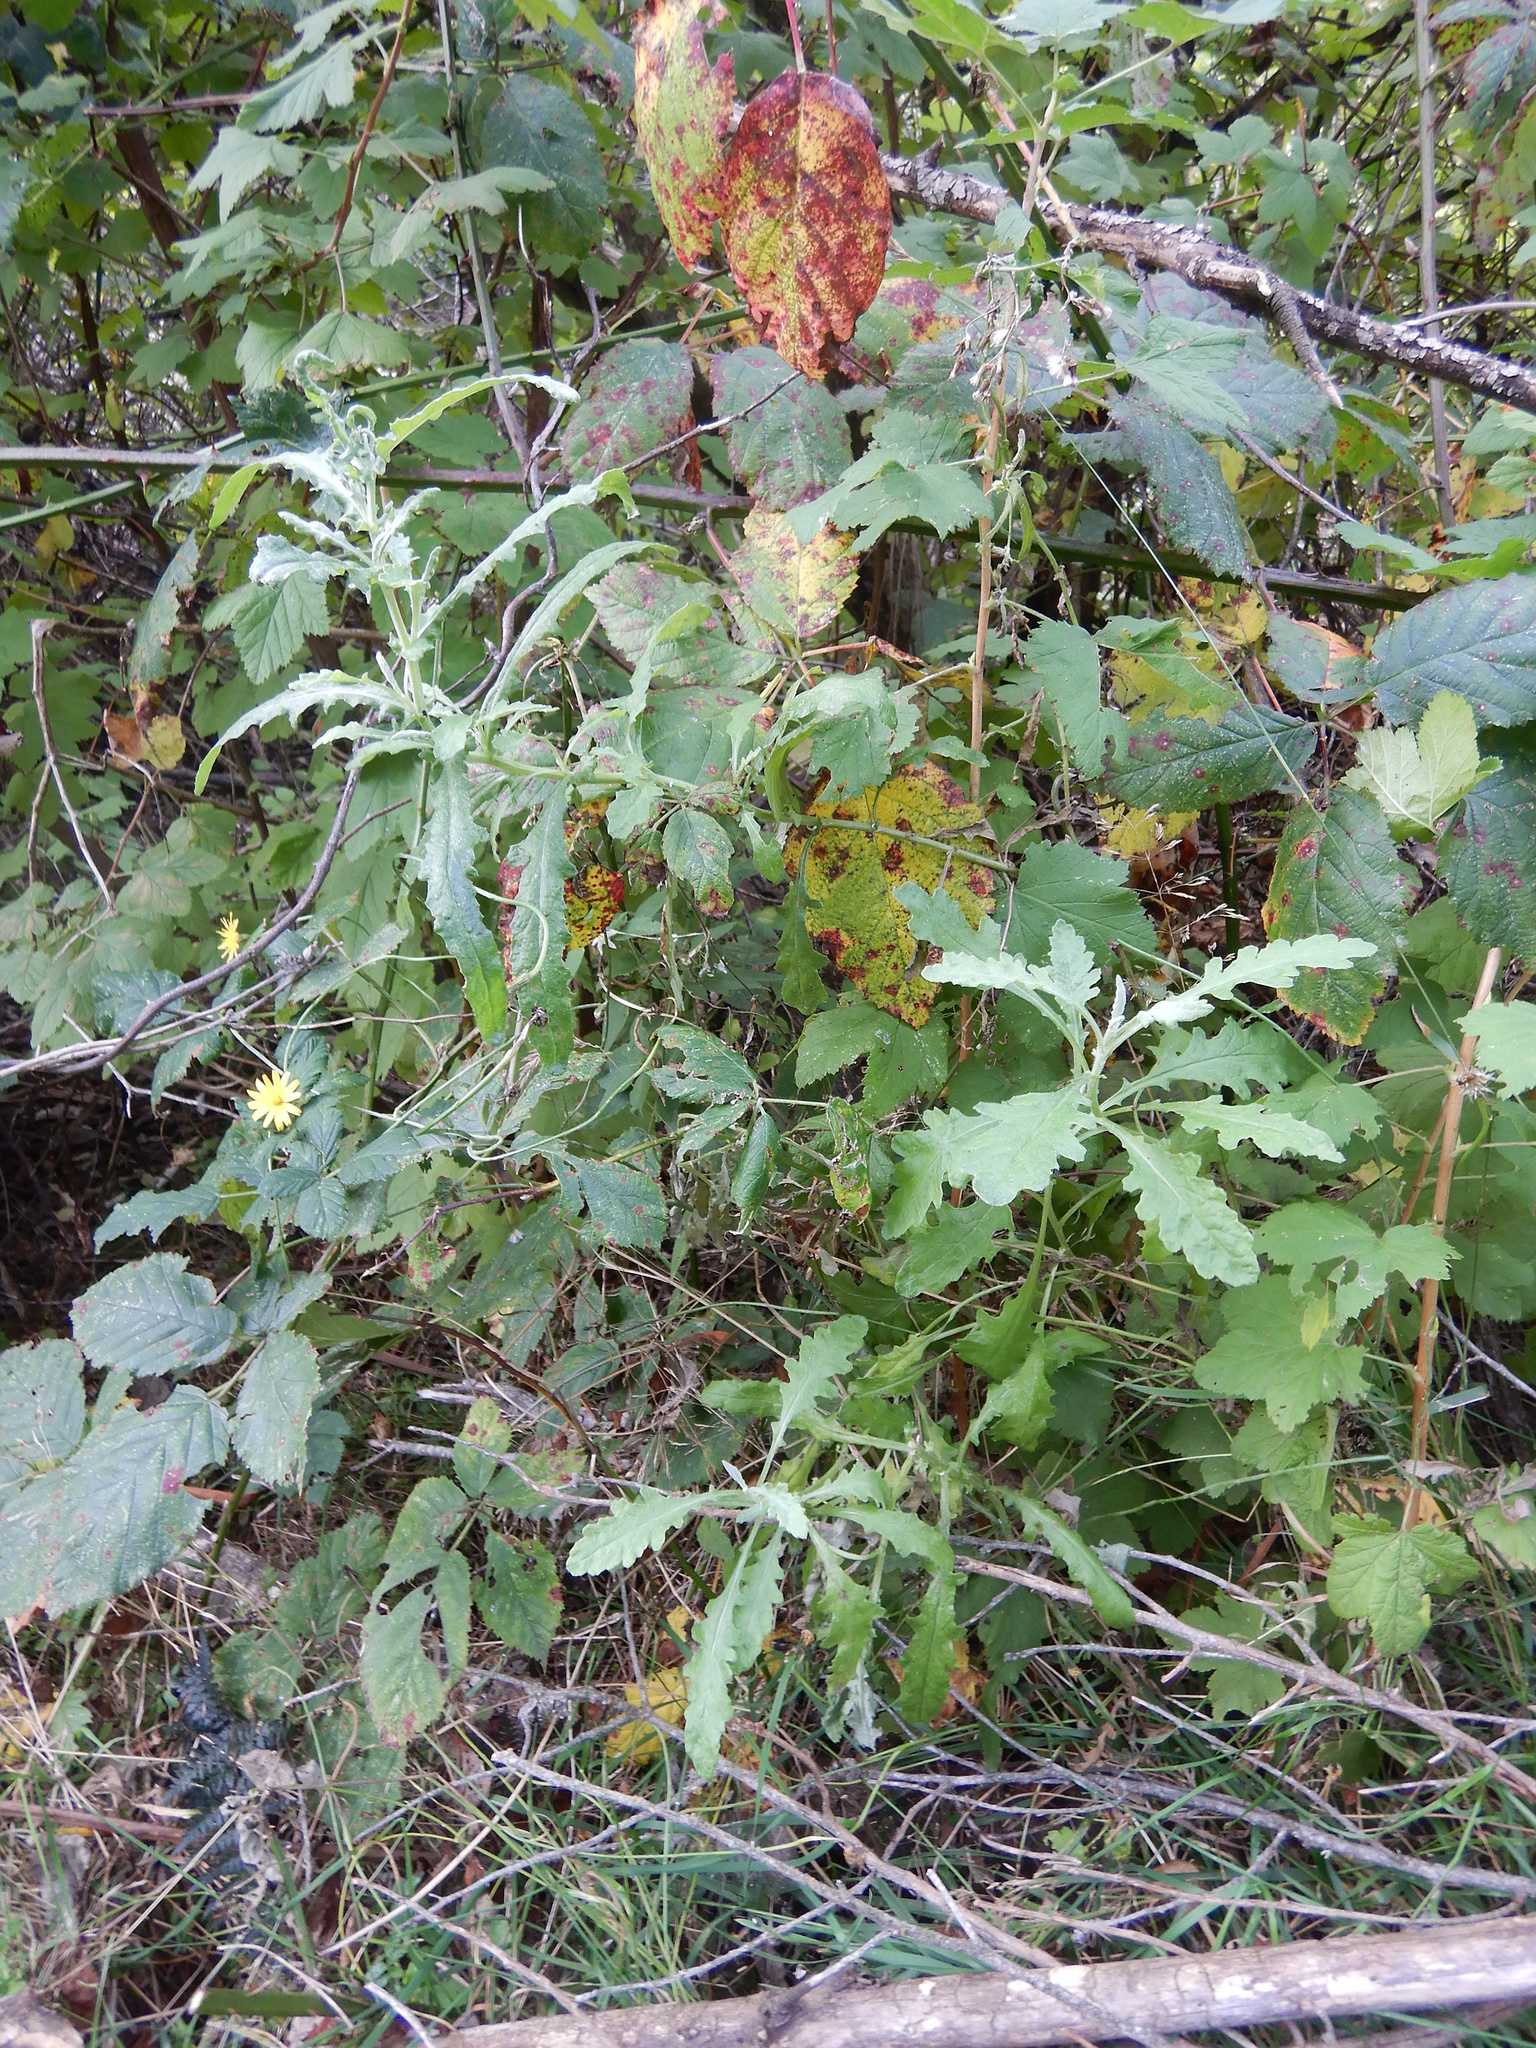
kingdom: Plantae
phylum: Tracheophyta
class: Magnoliopsida
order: Asterales
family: Asteraceae
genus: Senecio
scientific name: Senecio glomeratus
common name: Cutleaf burnweed
